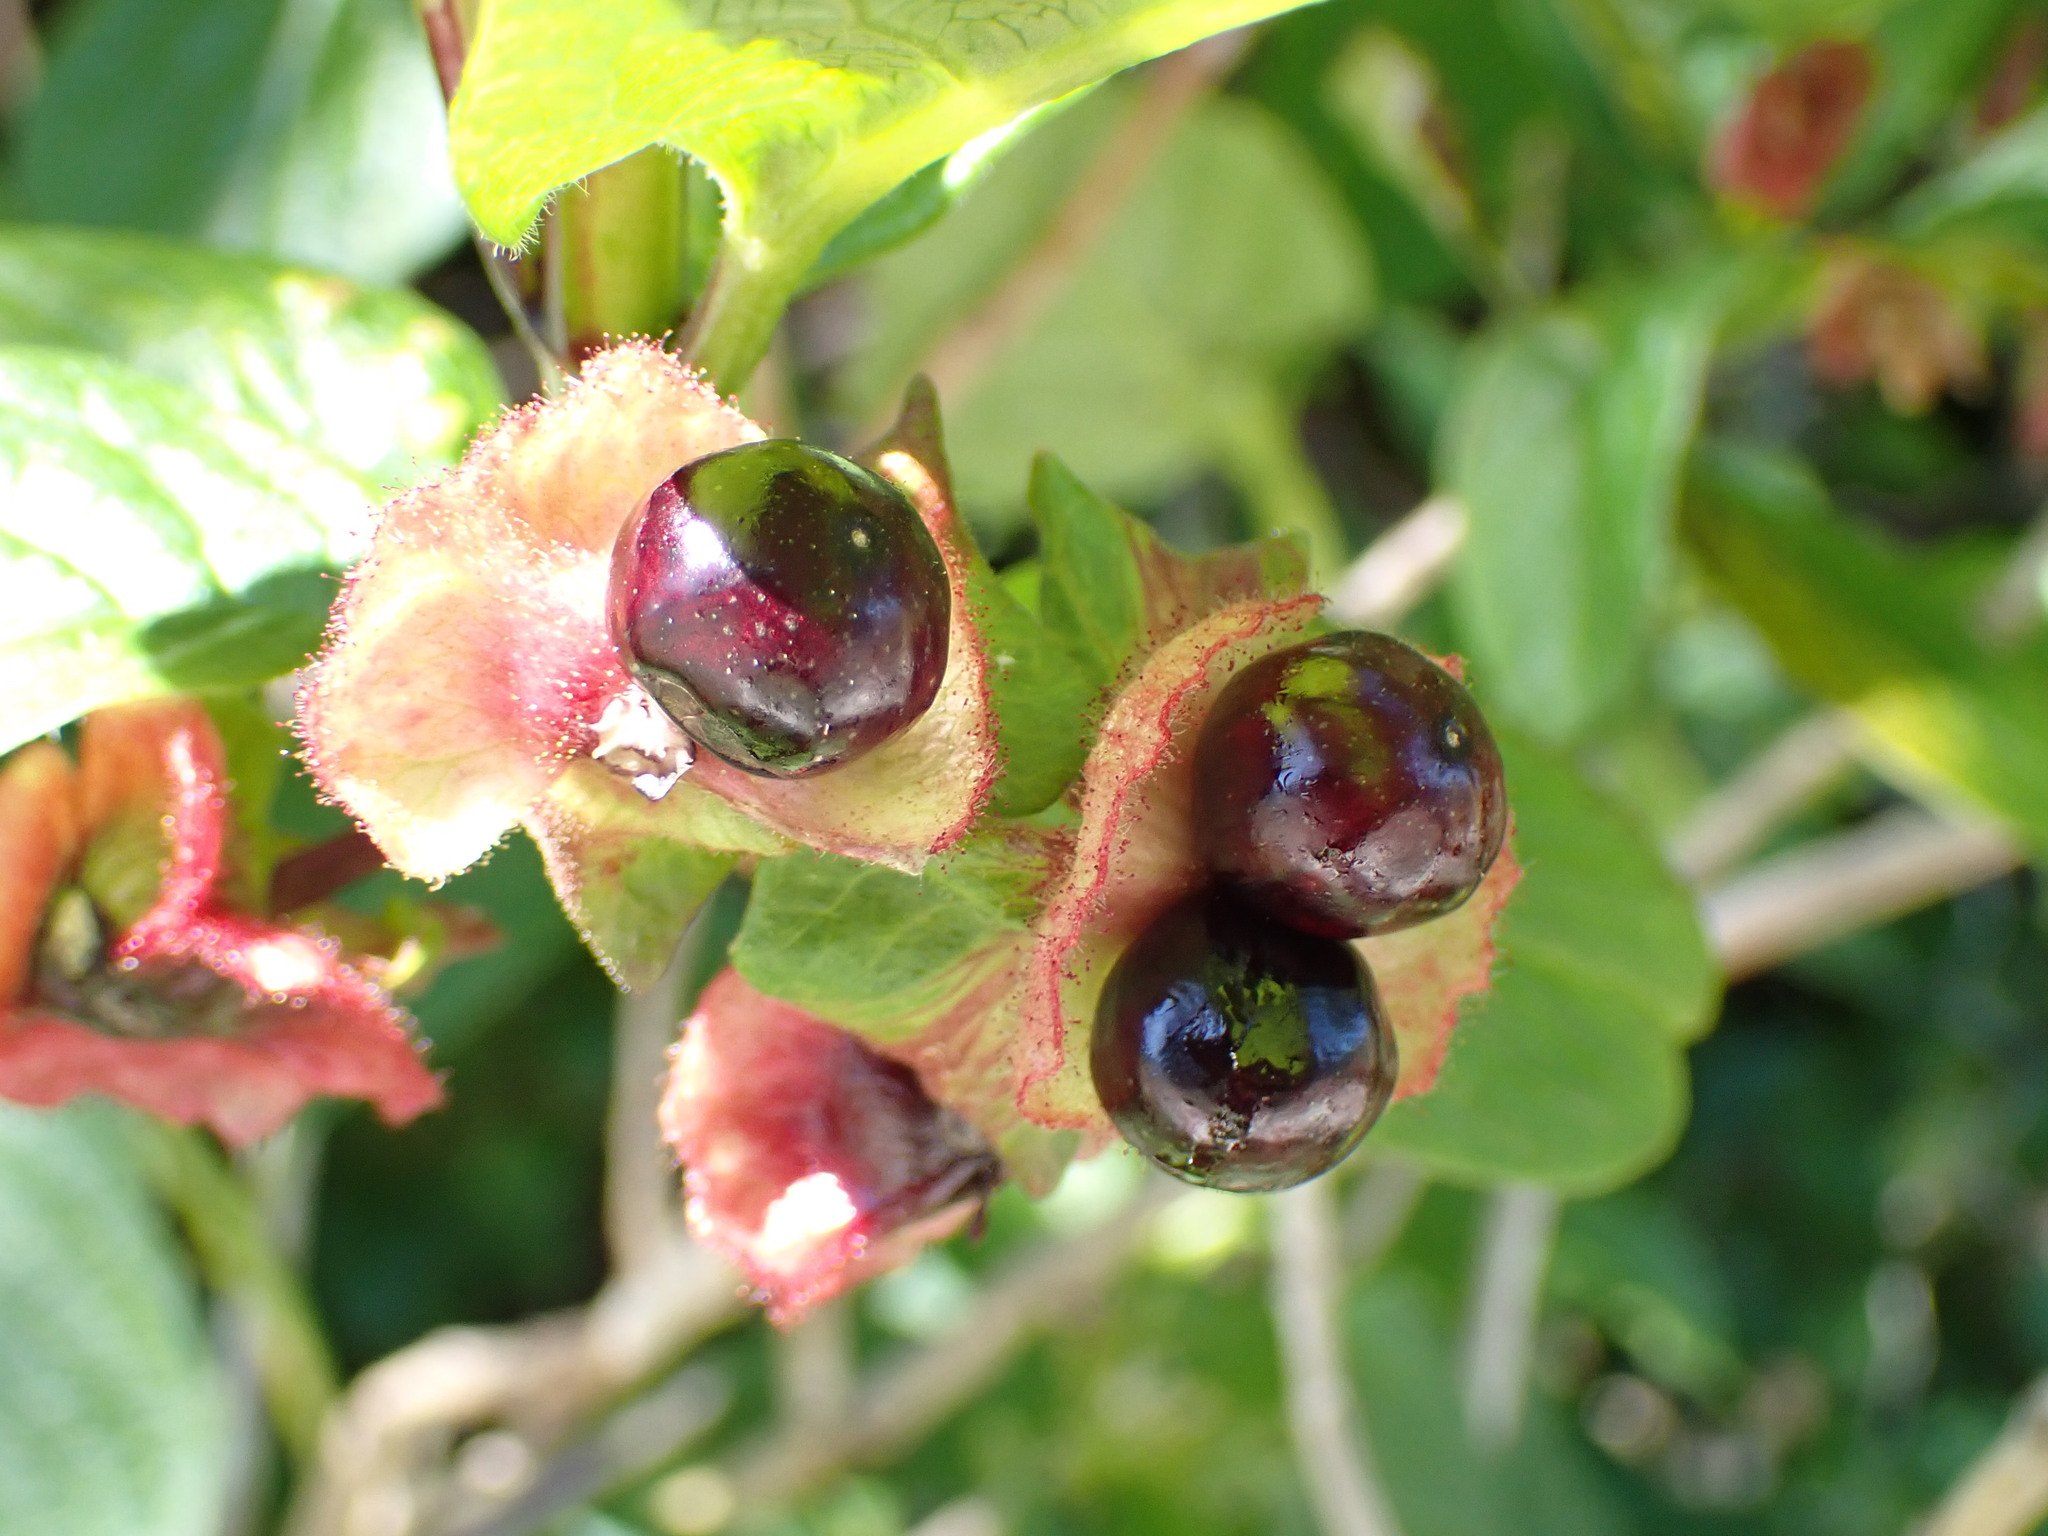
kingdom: Plantae
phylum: Tracheophyta
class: Magnoliopsida
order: Dipsacales
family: Caprifoliaceae
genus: Lonicera
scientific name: Lonicera involucrata
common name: Californian honeysuckle
